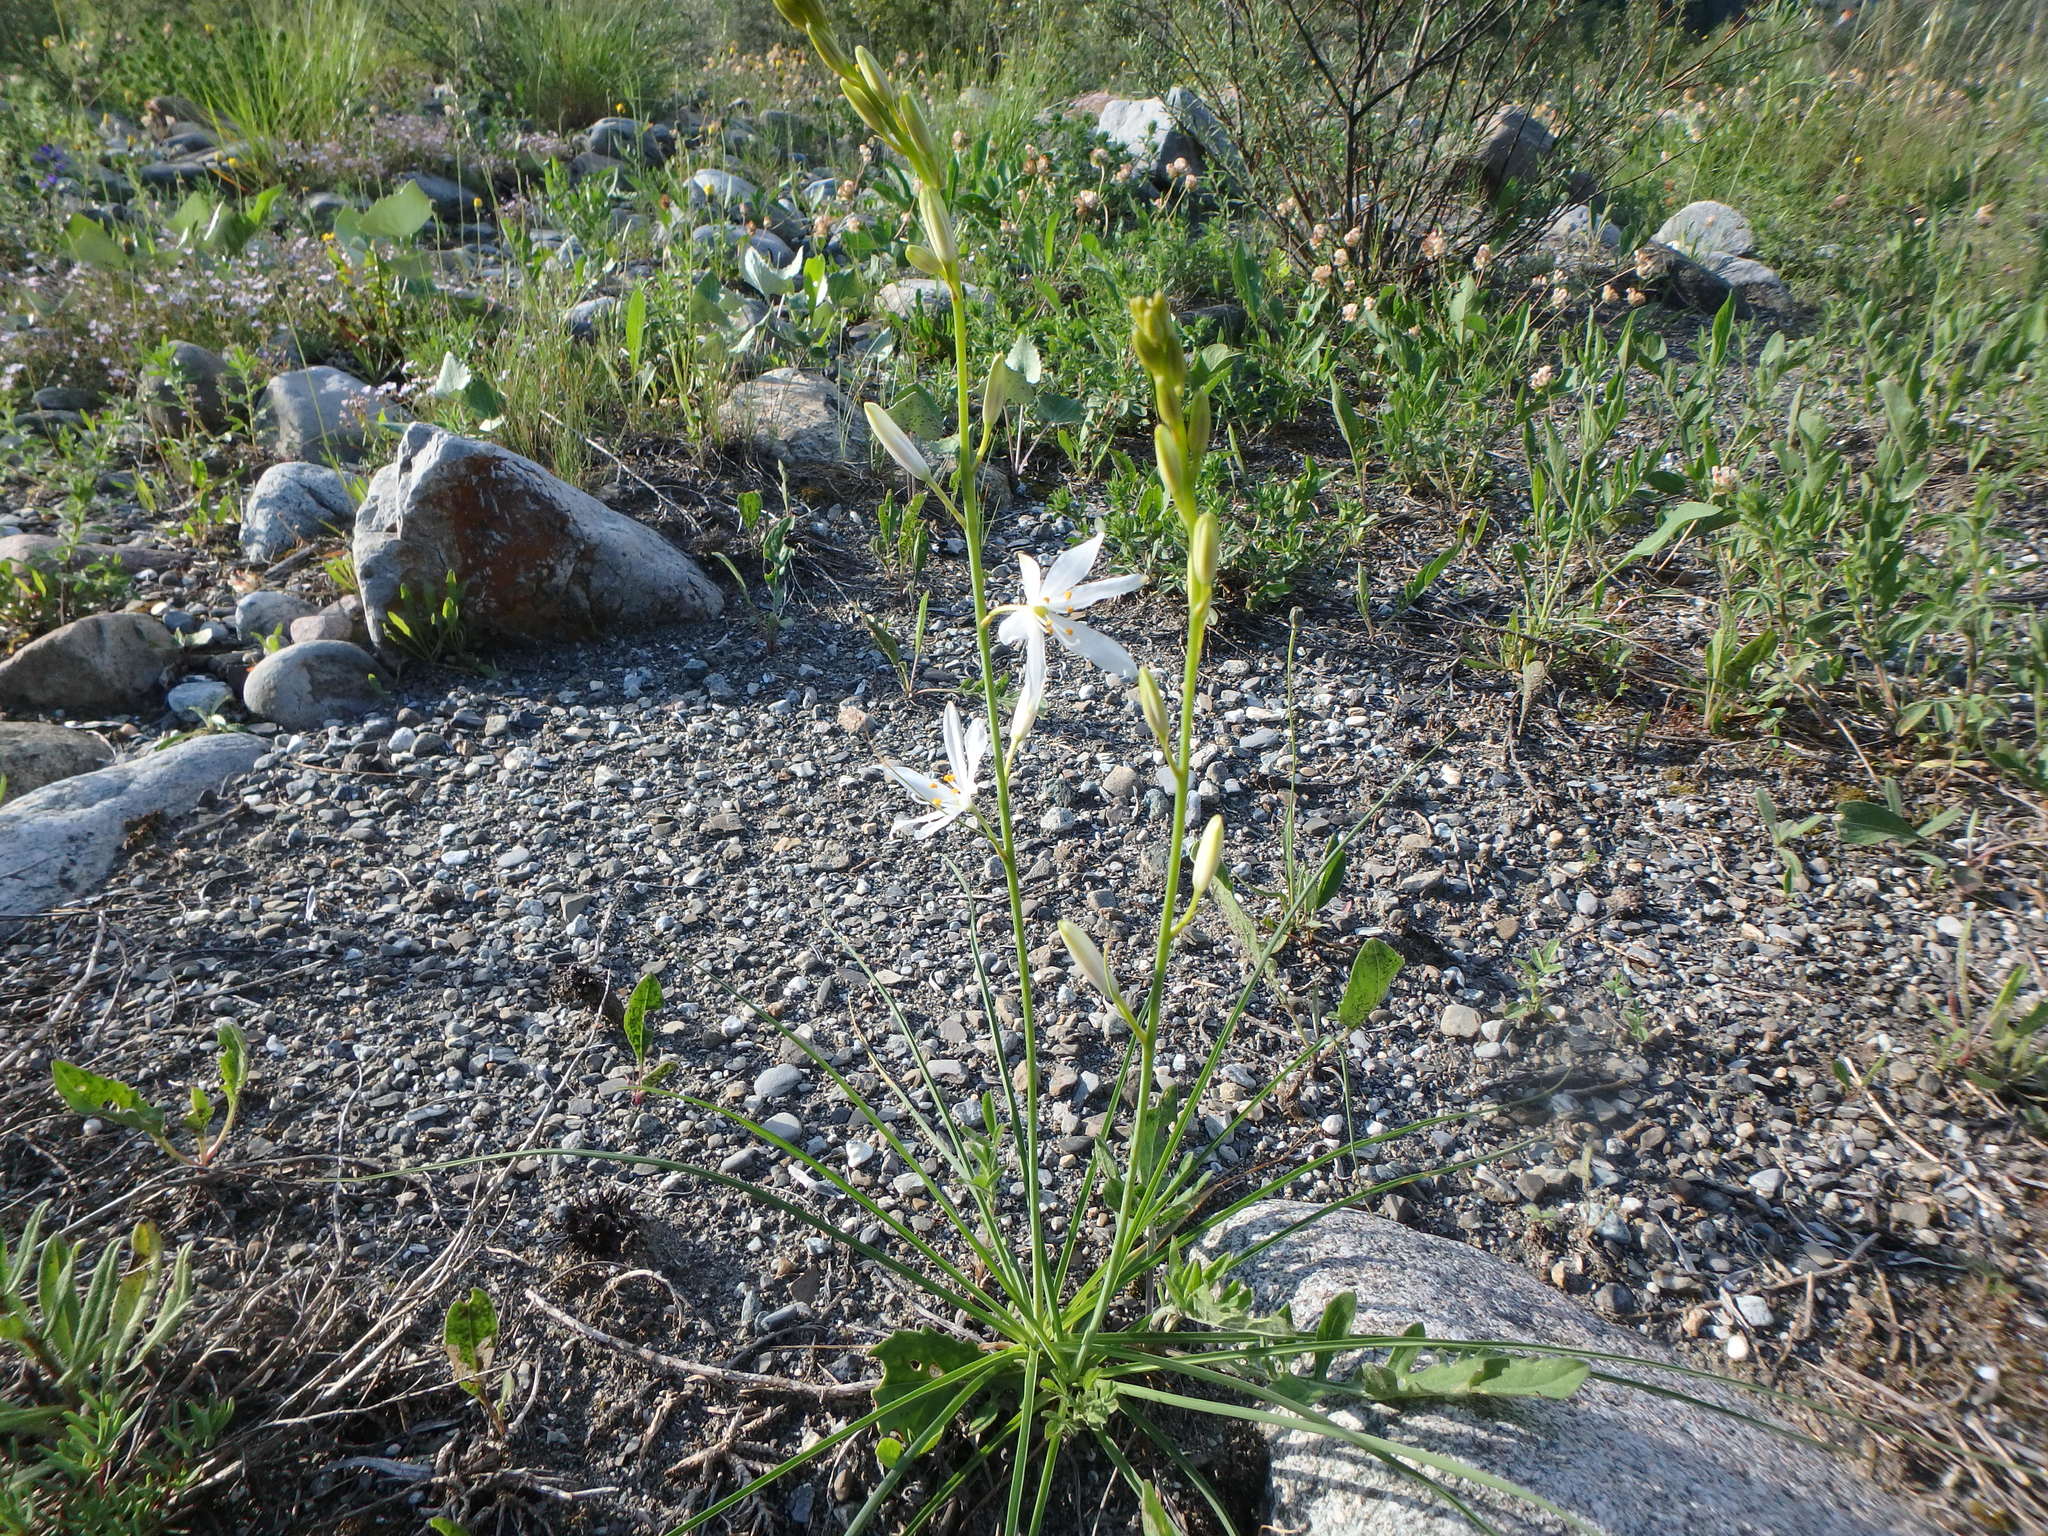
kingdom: Plantae
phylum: Tracheophyta
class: Liliopsida
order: Asparagales
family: Asparagaceae
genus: Anthericum
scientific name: Anthericum liliago
